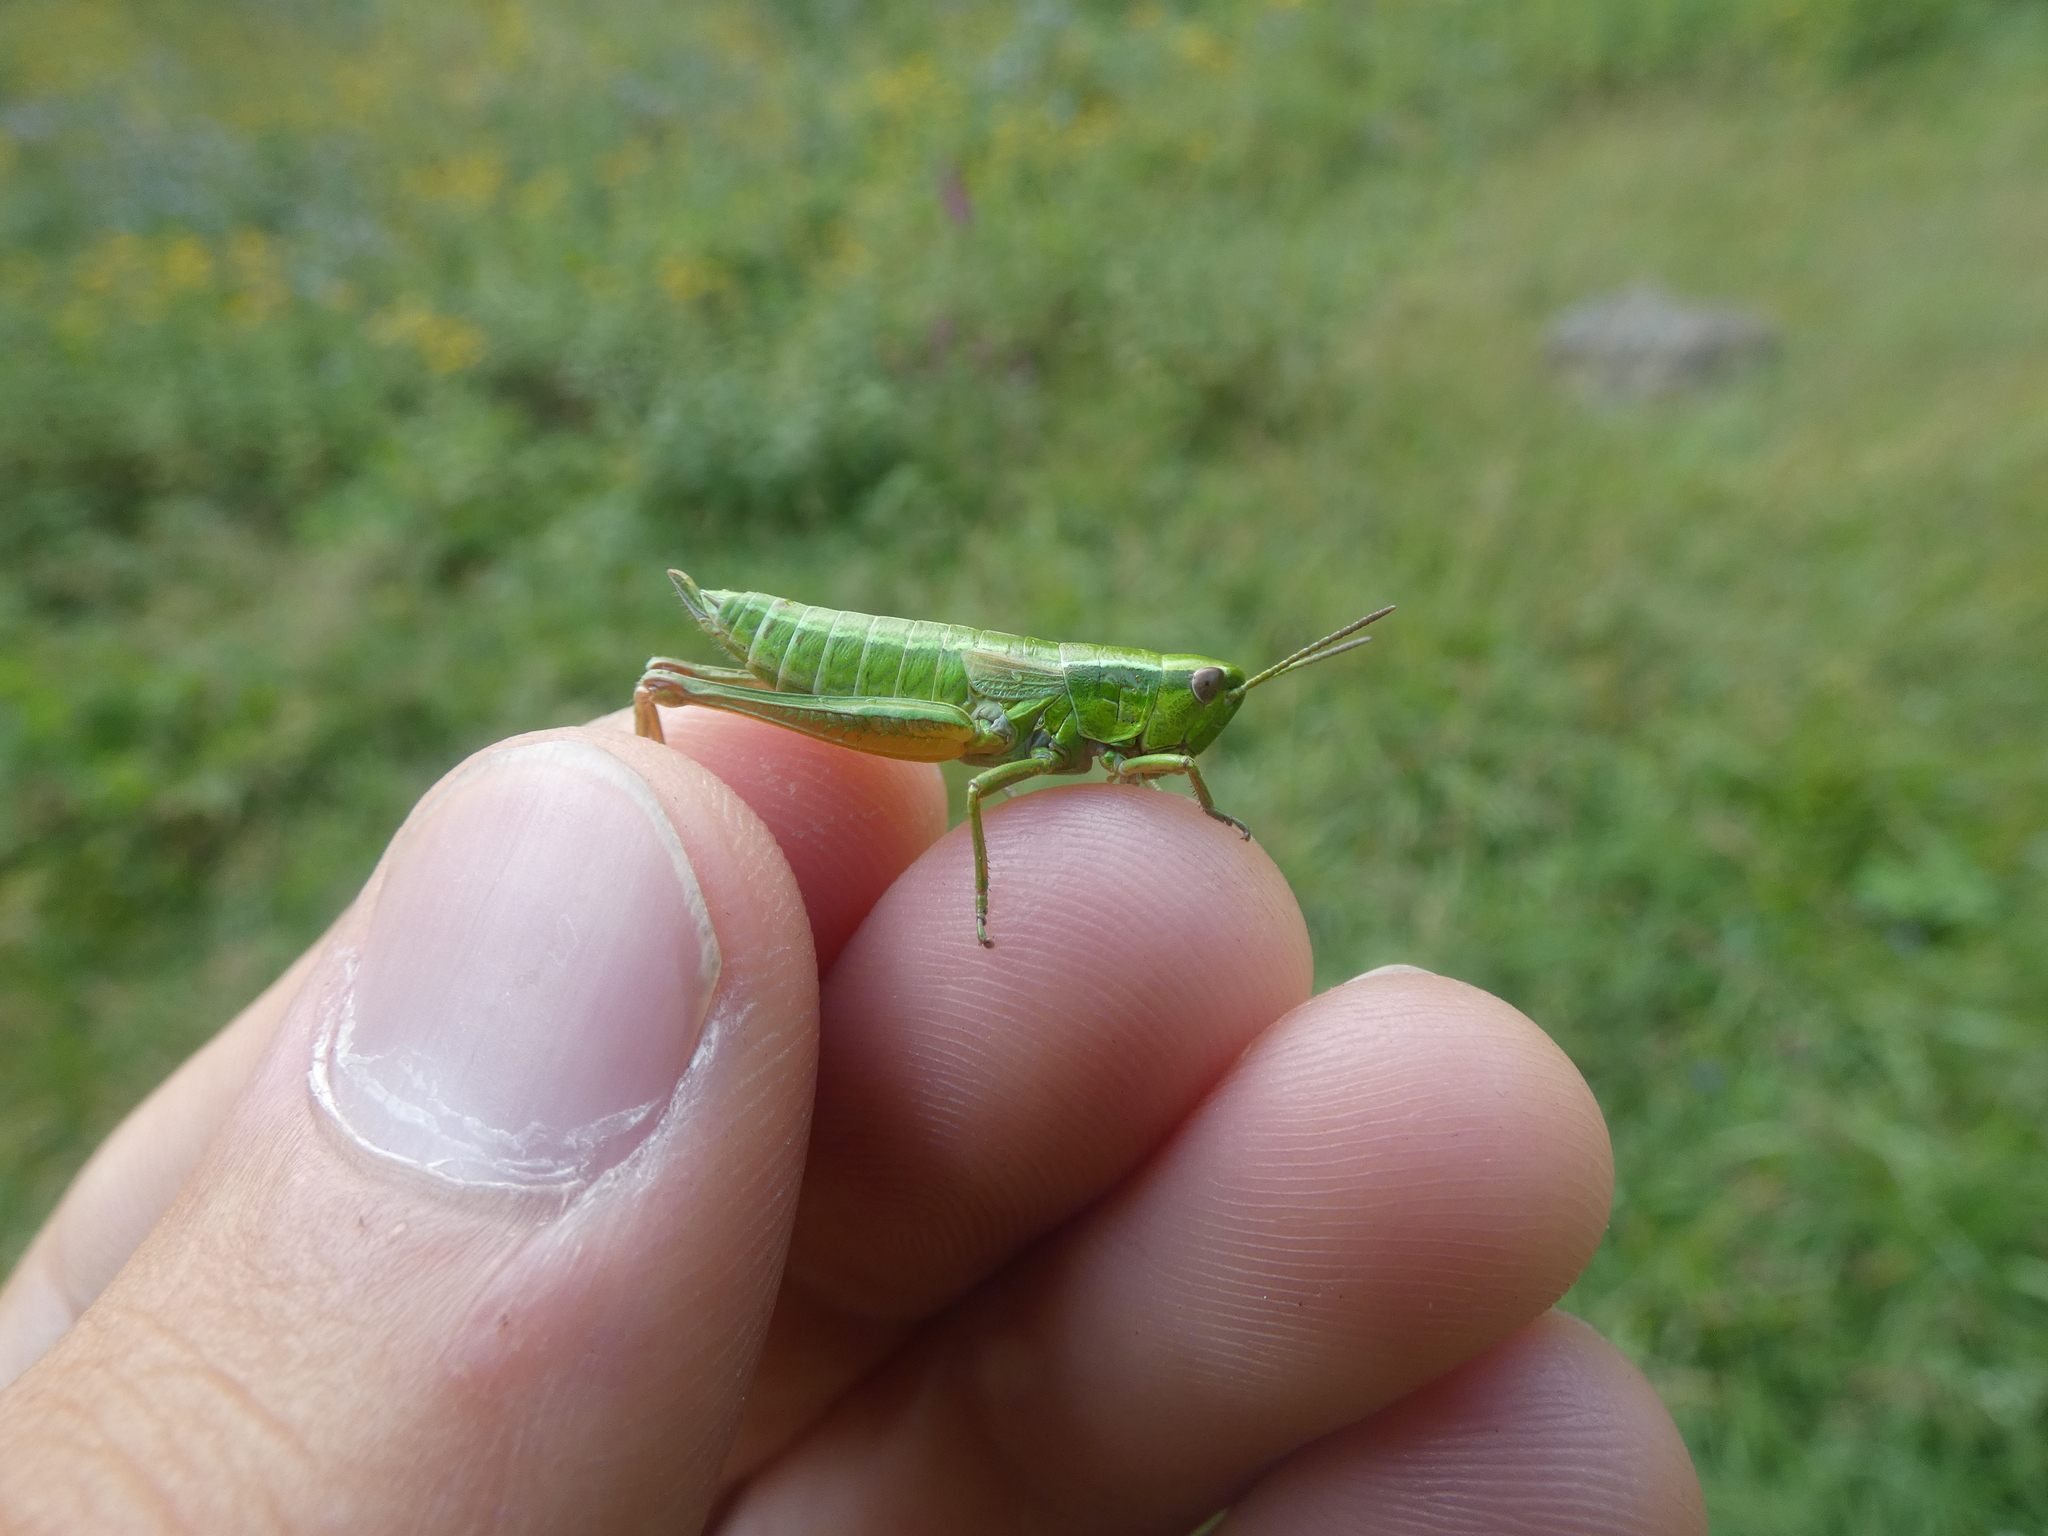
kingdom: Animalia
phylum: Arthropoda
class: Insecta
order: Orthoptera
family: Acrididae
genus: Euthystira
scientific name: Euthystira brachyptera
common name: Small gold grasshopper
